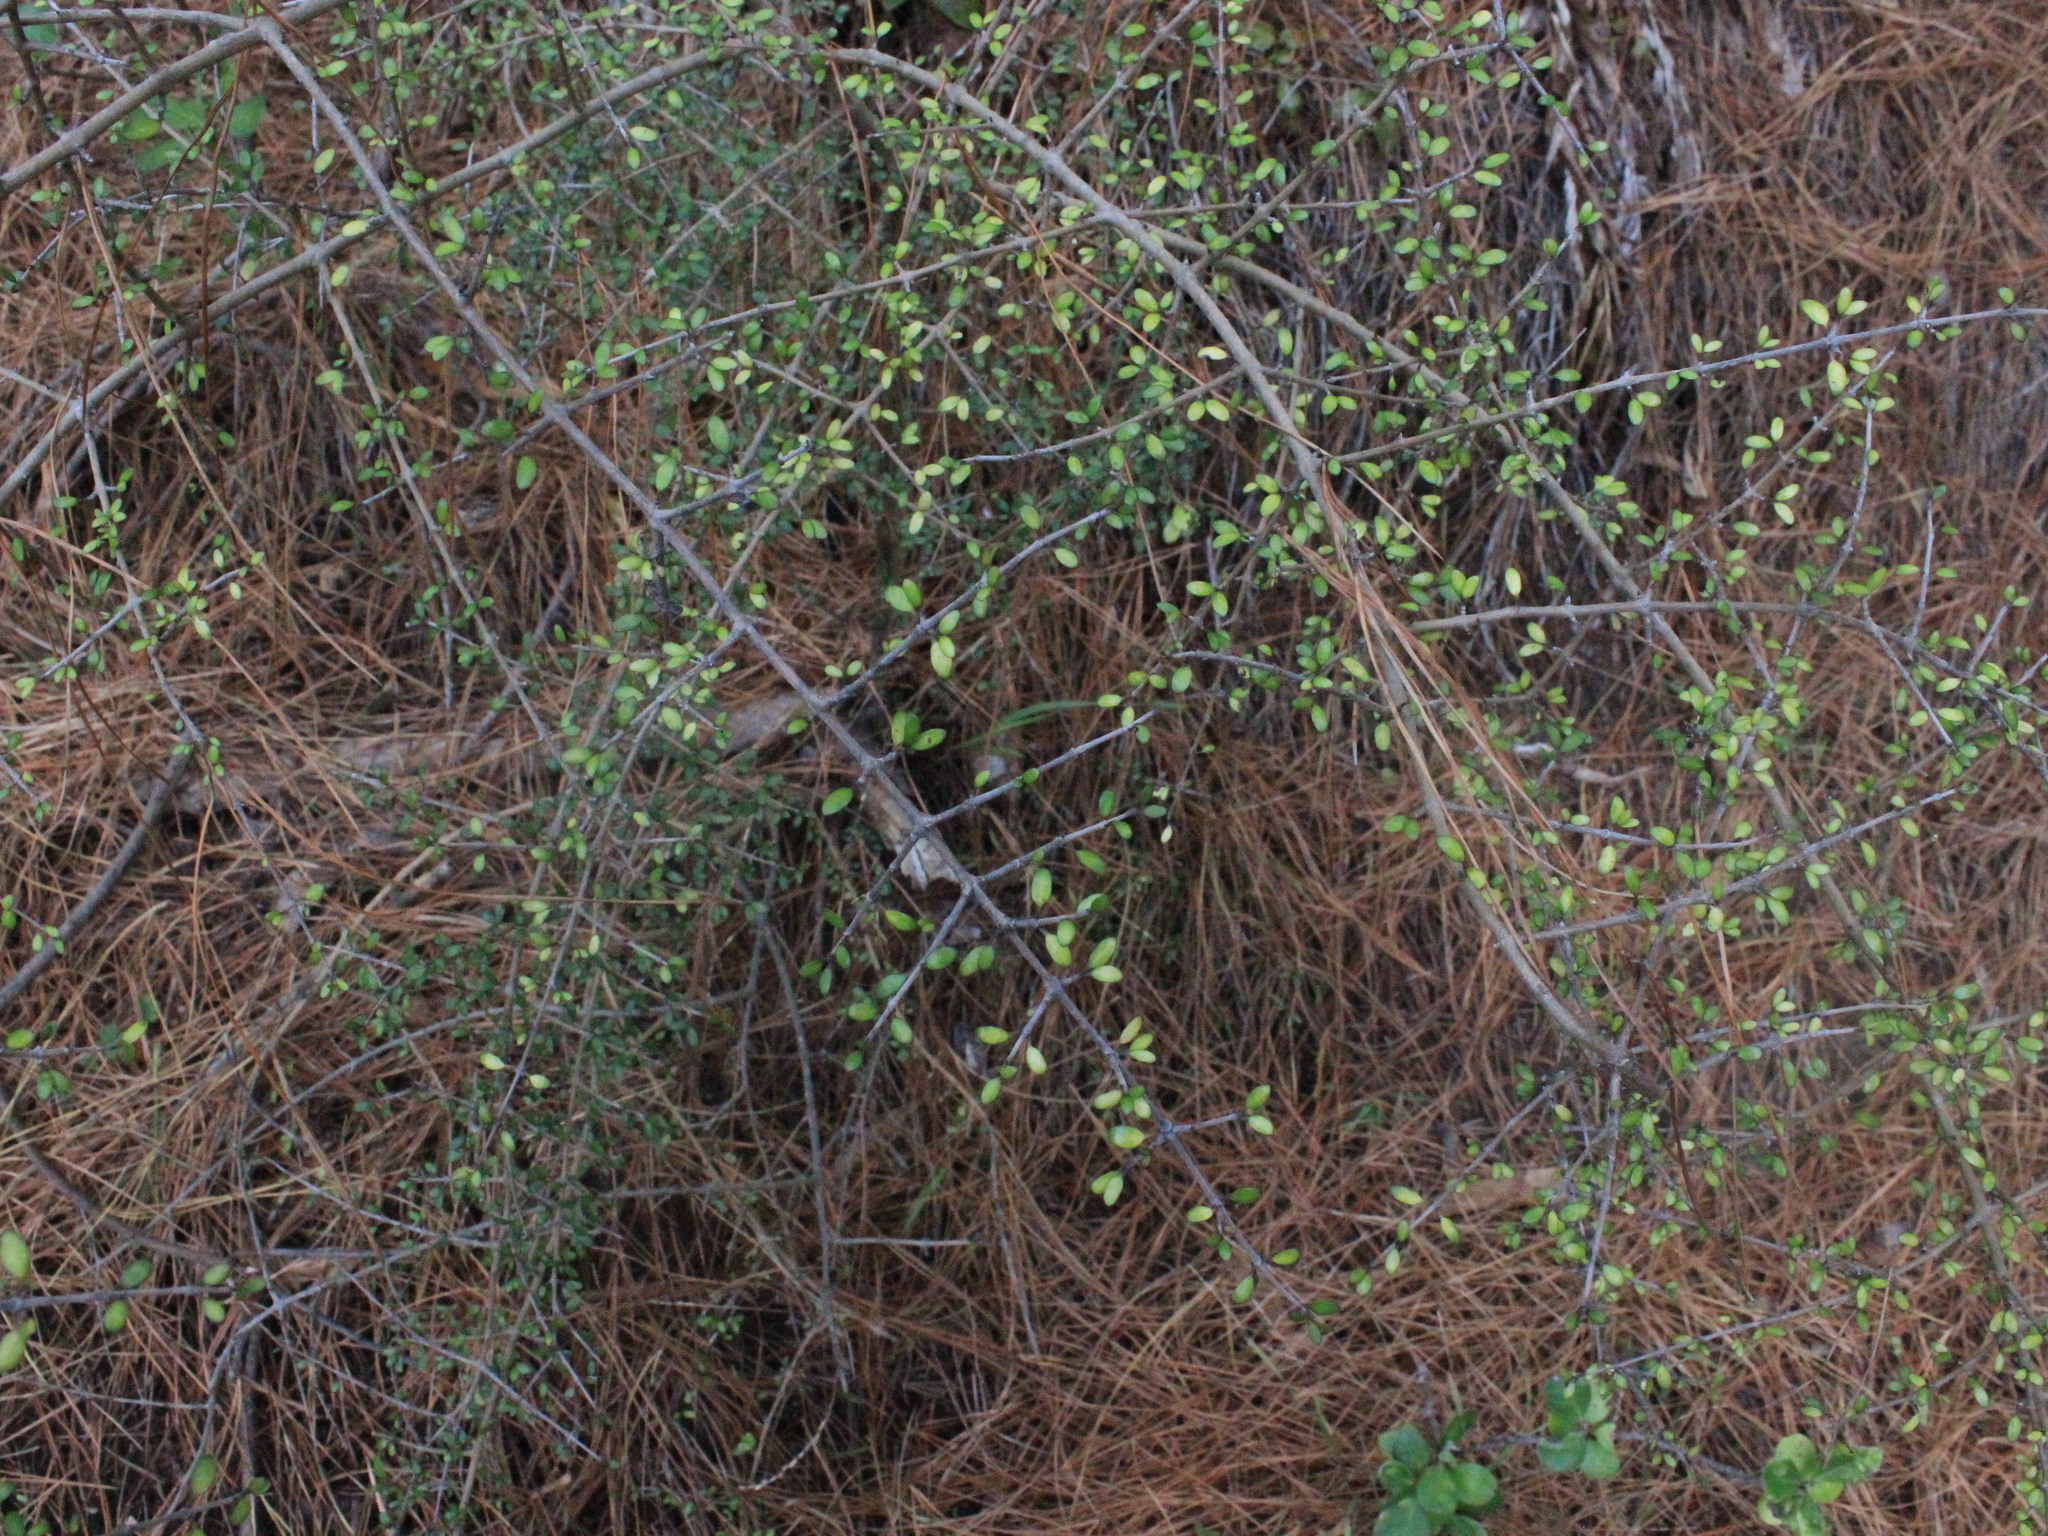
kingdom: Plantae
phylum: Tracheophyta
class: Magnoliopsida
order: Gentianales
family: Rubiaceae
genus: Coprosma
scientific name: Coprosma rhamnoides
